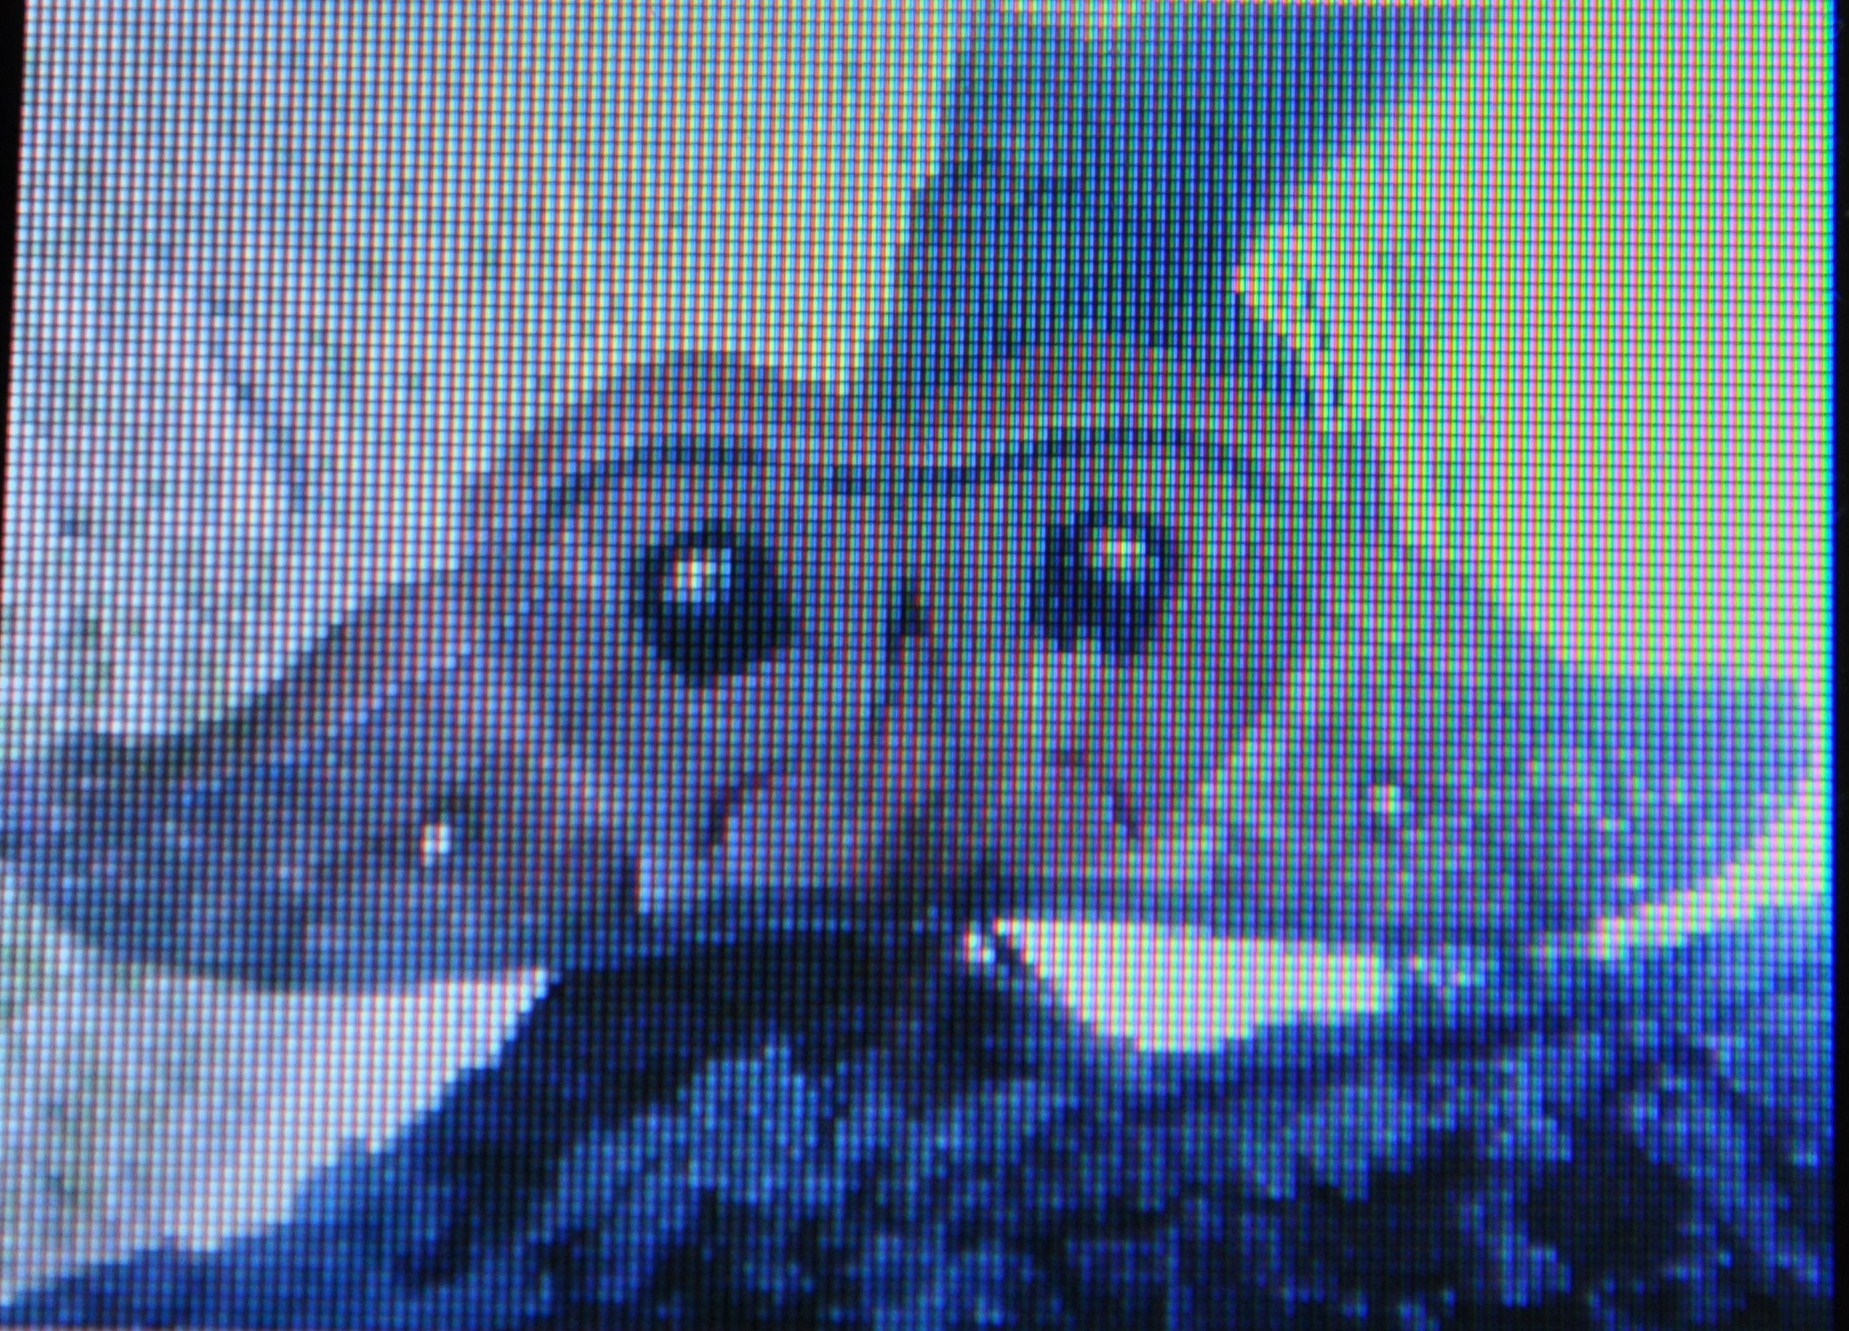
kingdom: Animalia
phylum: Arthropoda
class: Insecta
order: Lepidoptera
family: Saturniidae
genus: Antheraea
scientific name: Antheraea polyphemus
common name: Polyphemus moth
